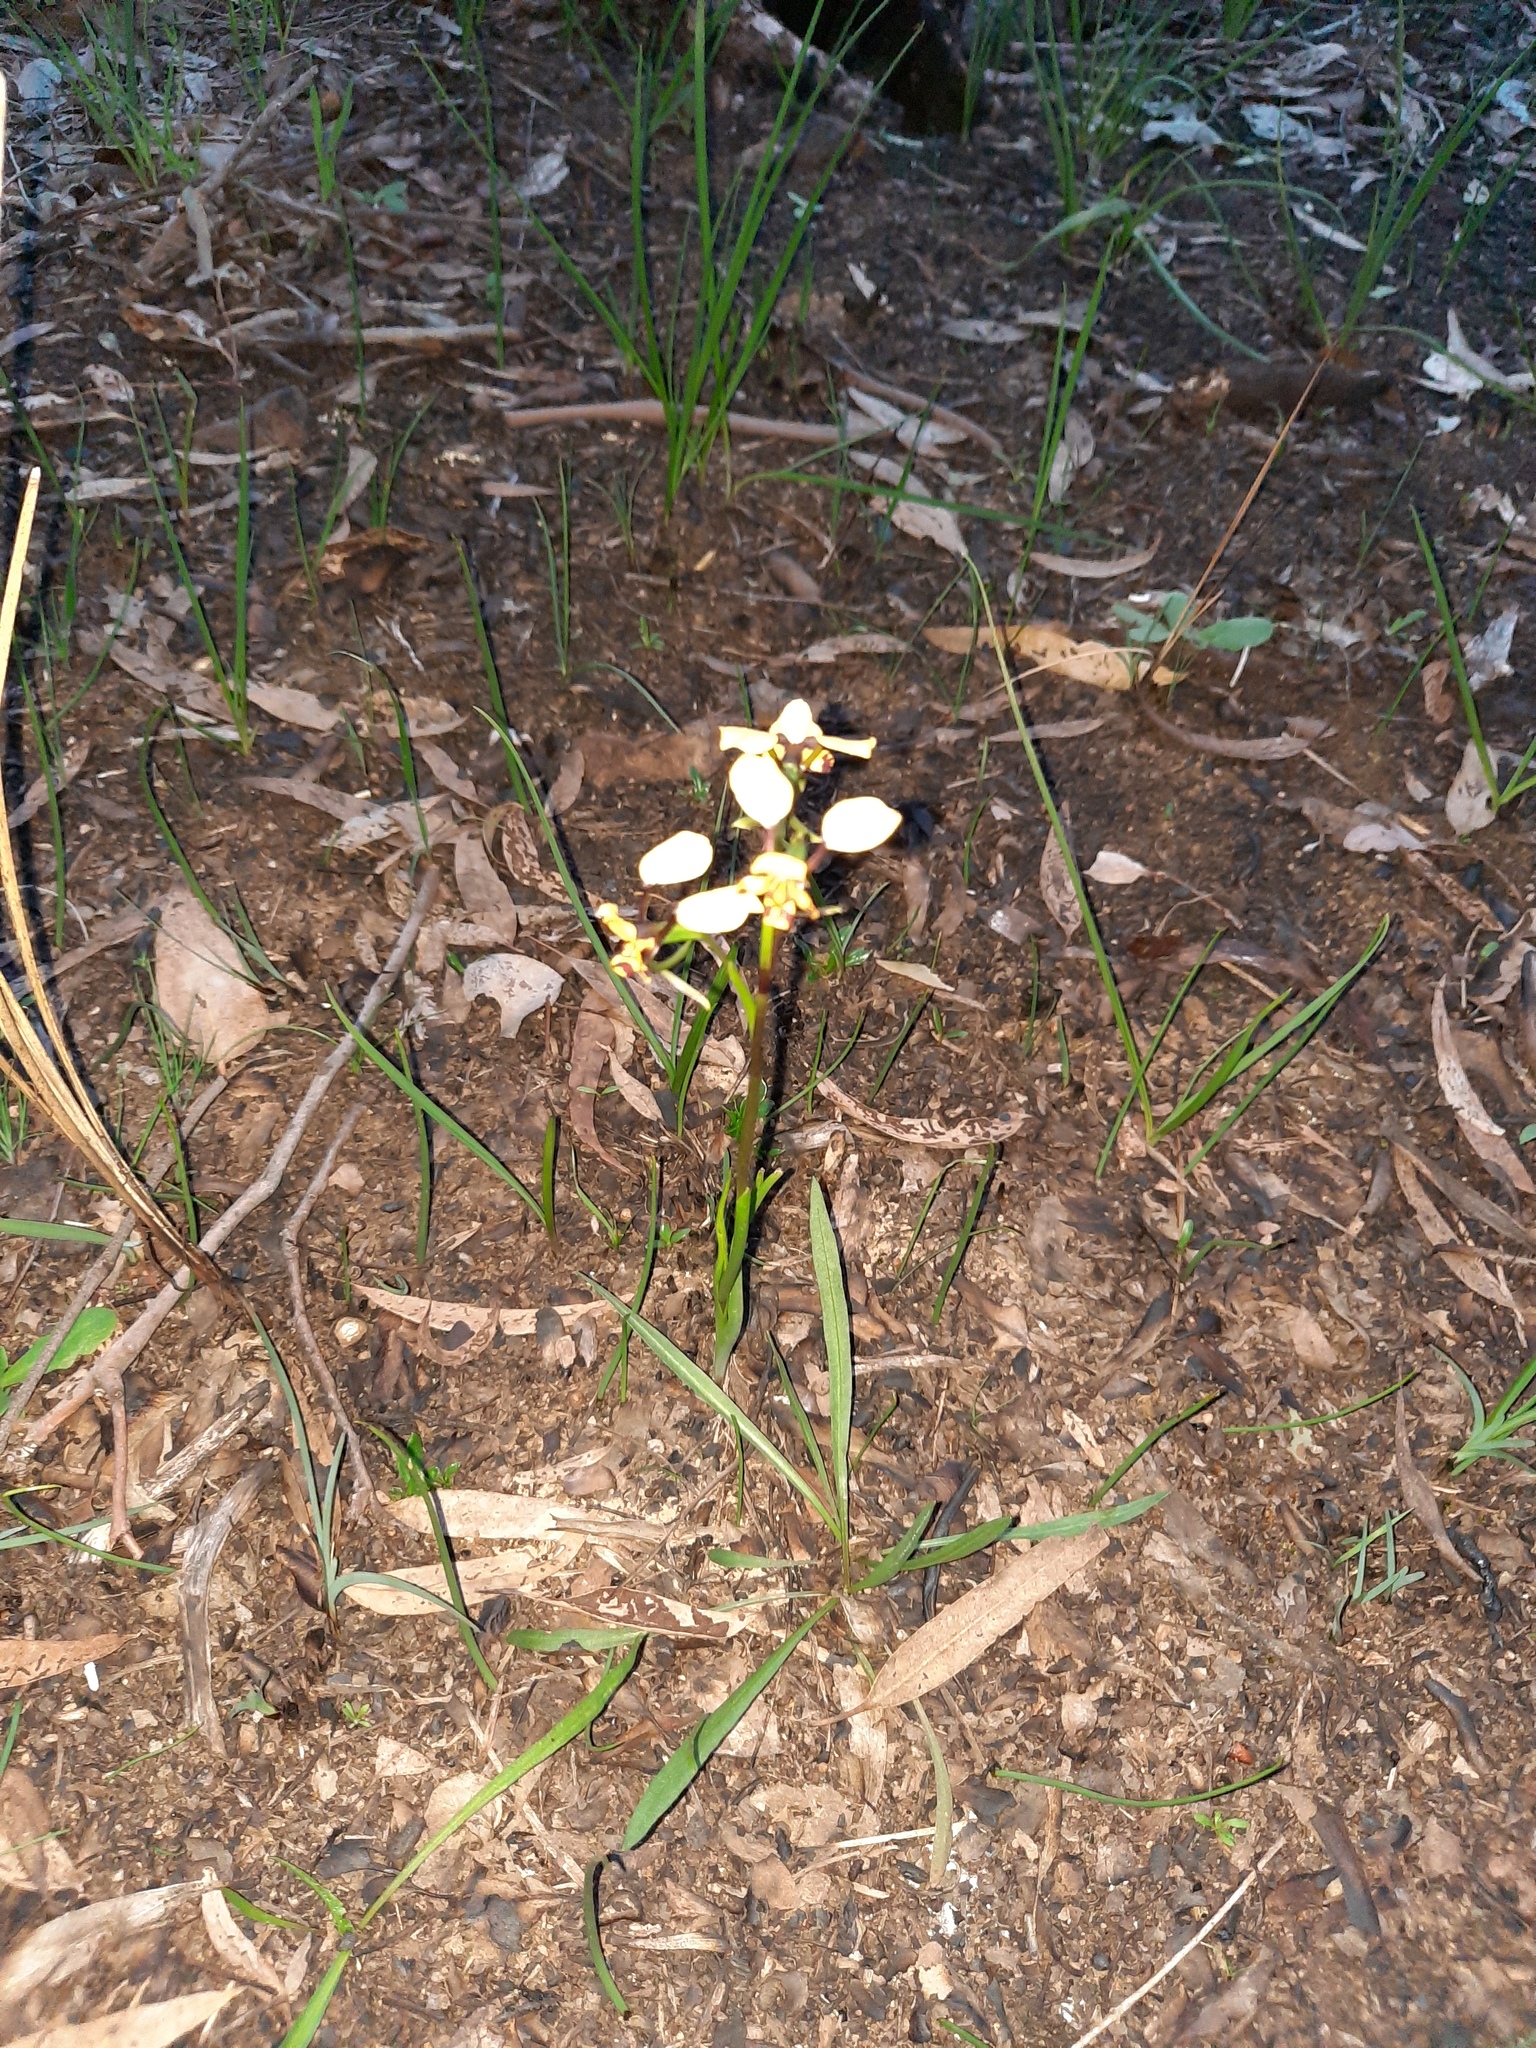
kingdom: Plantae
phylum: Tracheophyta
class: Liliopsida
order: Asparagales
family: Orchidaceae
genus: Diuris
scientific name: Diuris pardina
